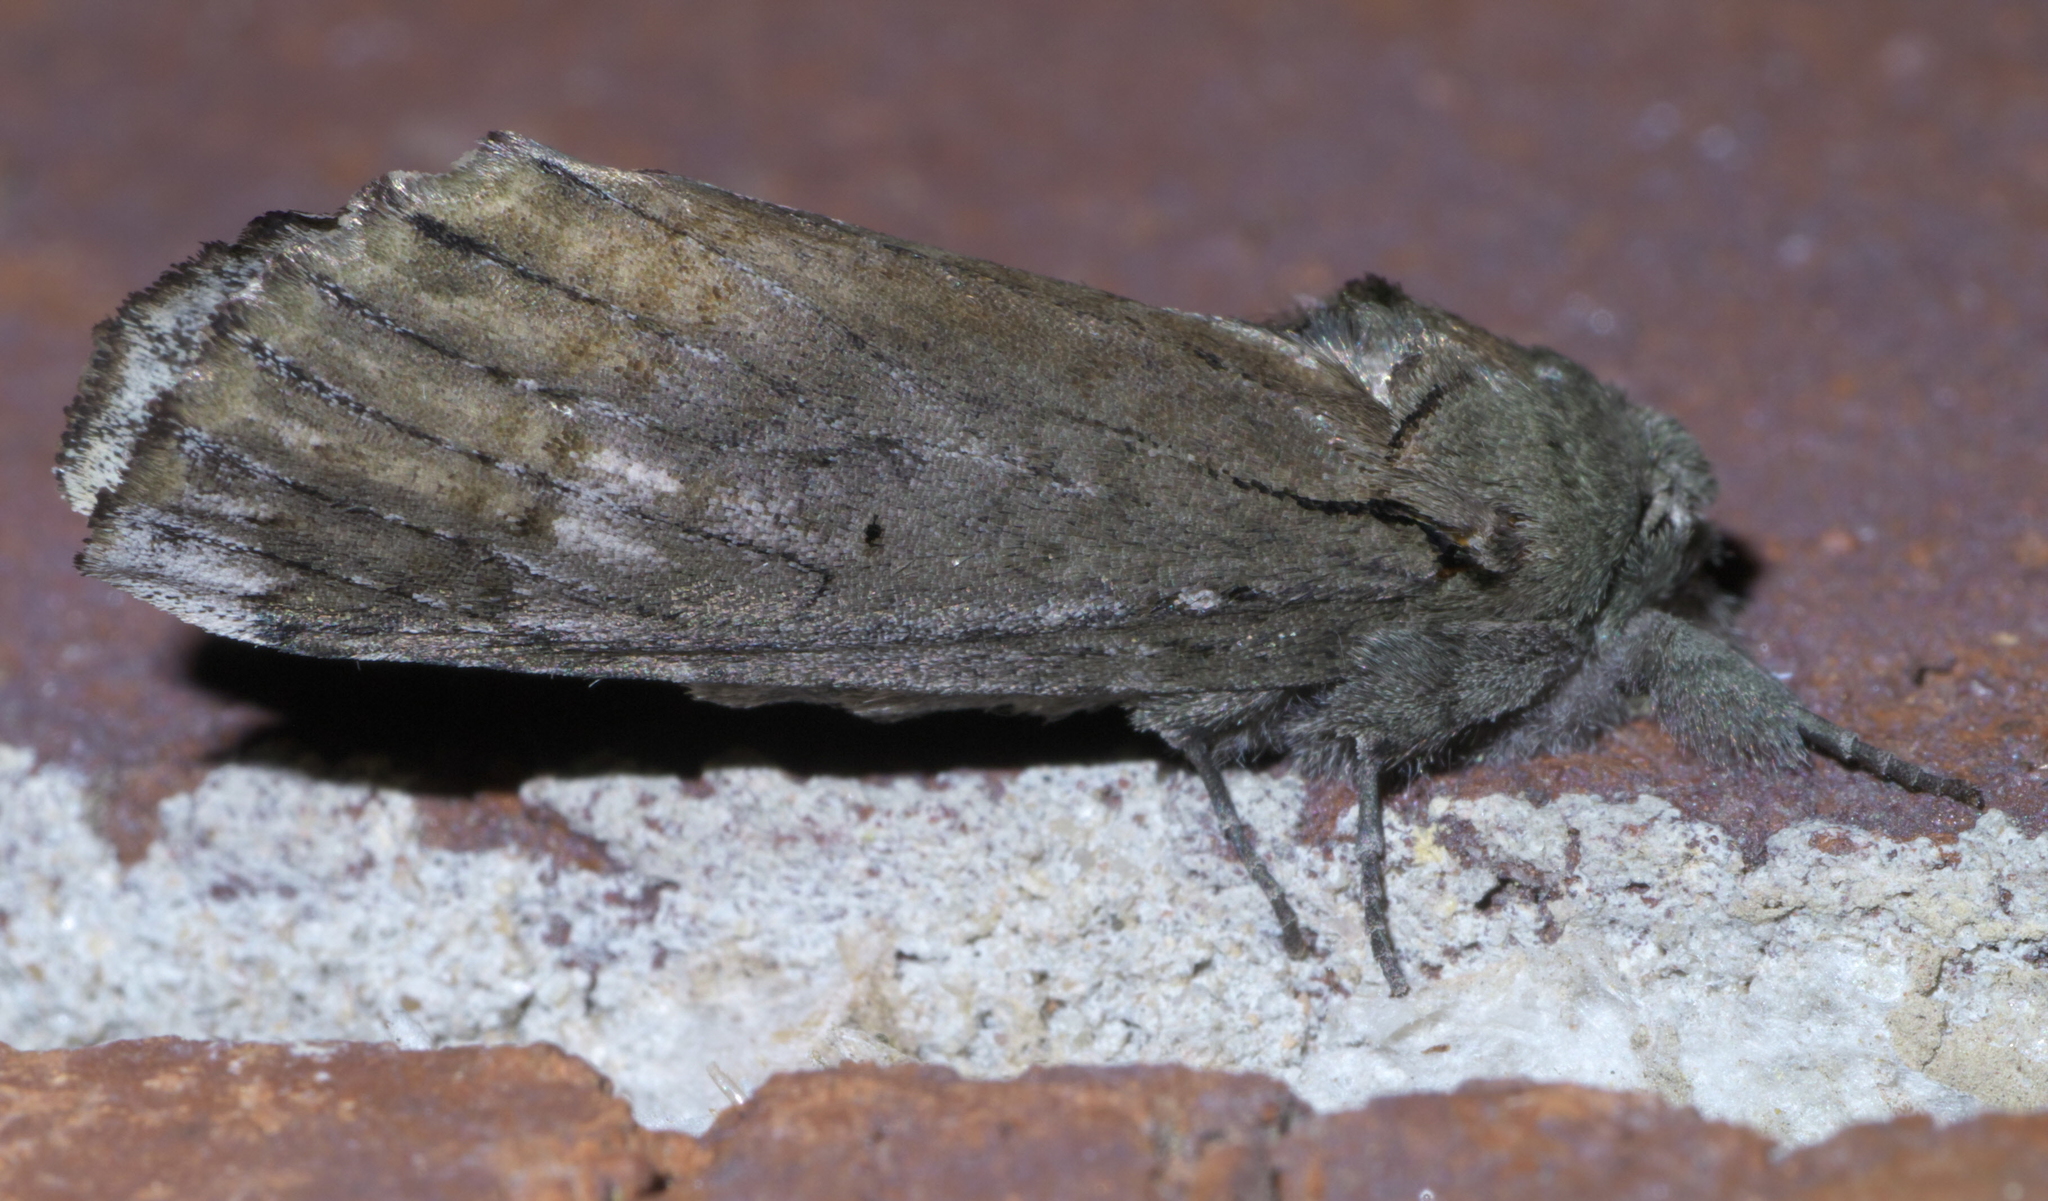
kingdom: Animalia
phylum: Arthropoda
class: Insecta
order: Lepidoptera
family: Notodontidae
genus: Schizura
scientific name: Schizura
